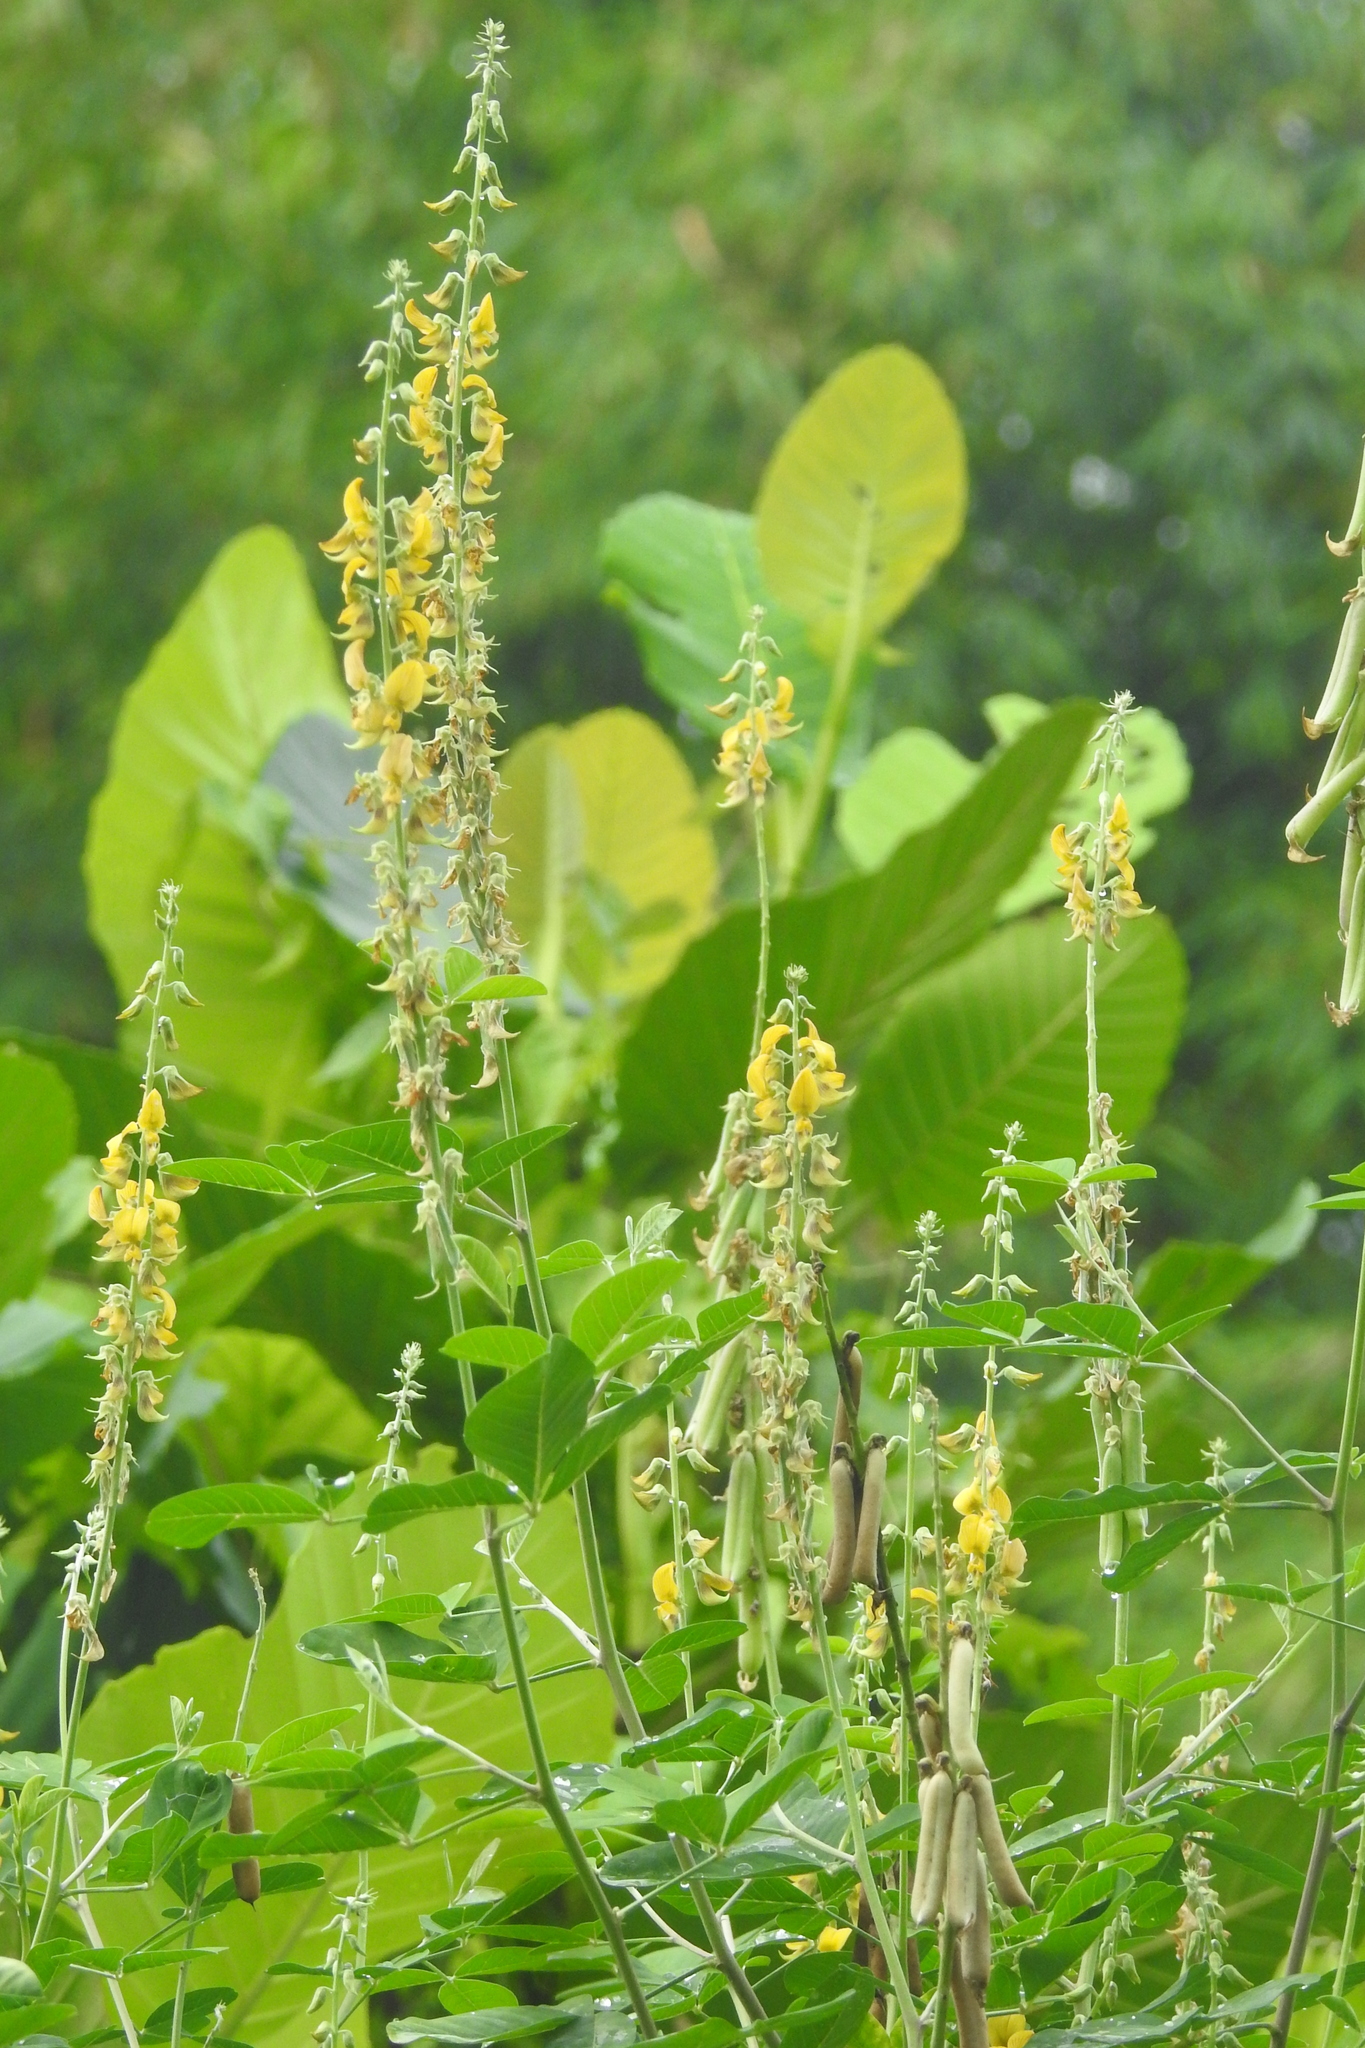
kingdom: Plantae
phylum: Tracheophyta
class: Magnoliopsida
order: Fabales
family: Fabaceae
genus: Crotalaria
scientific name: Crotalaria pallida
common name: Smooth rattlebox
